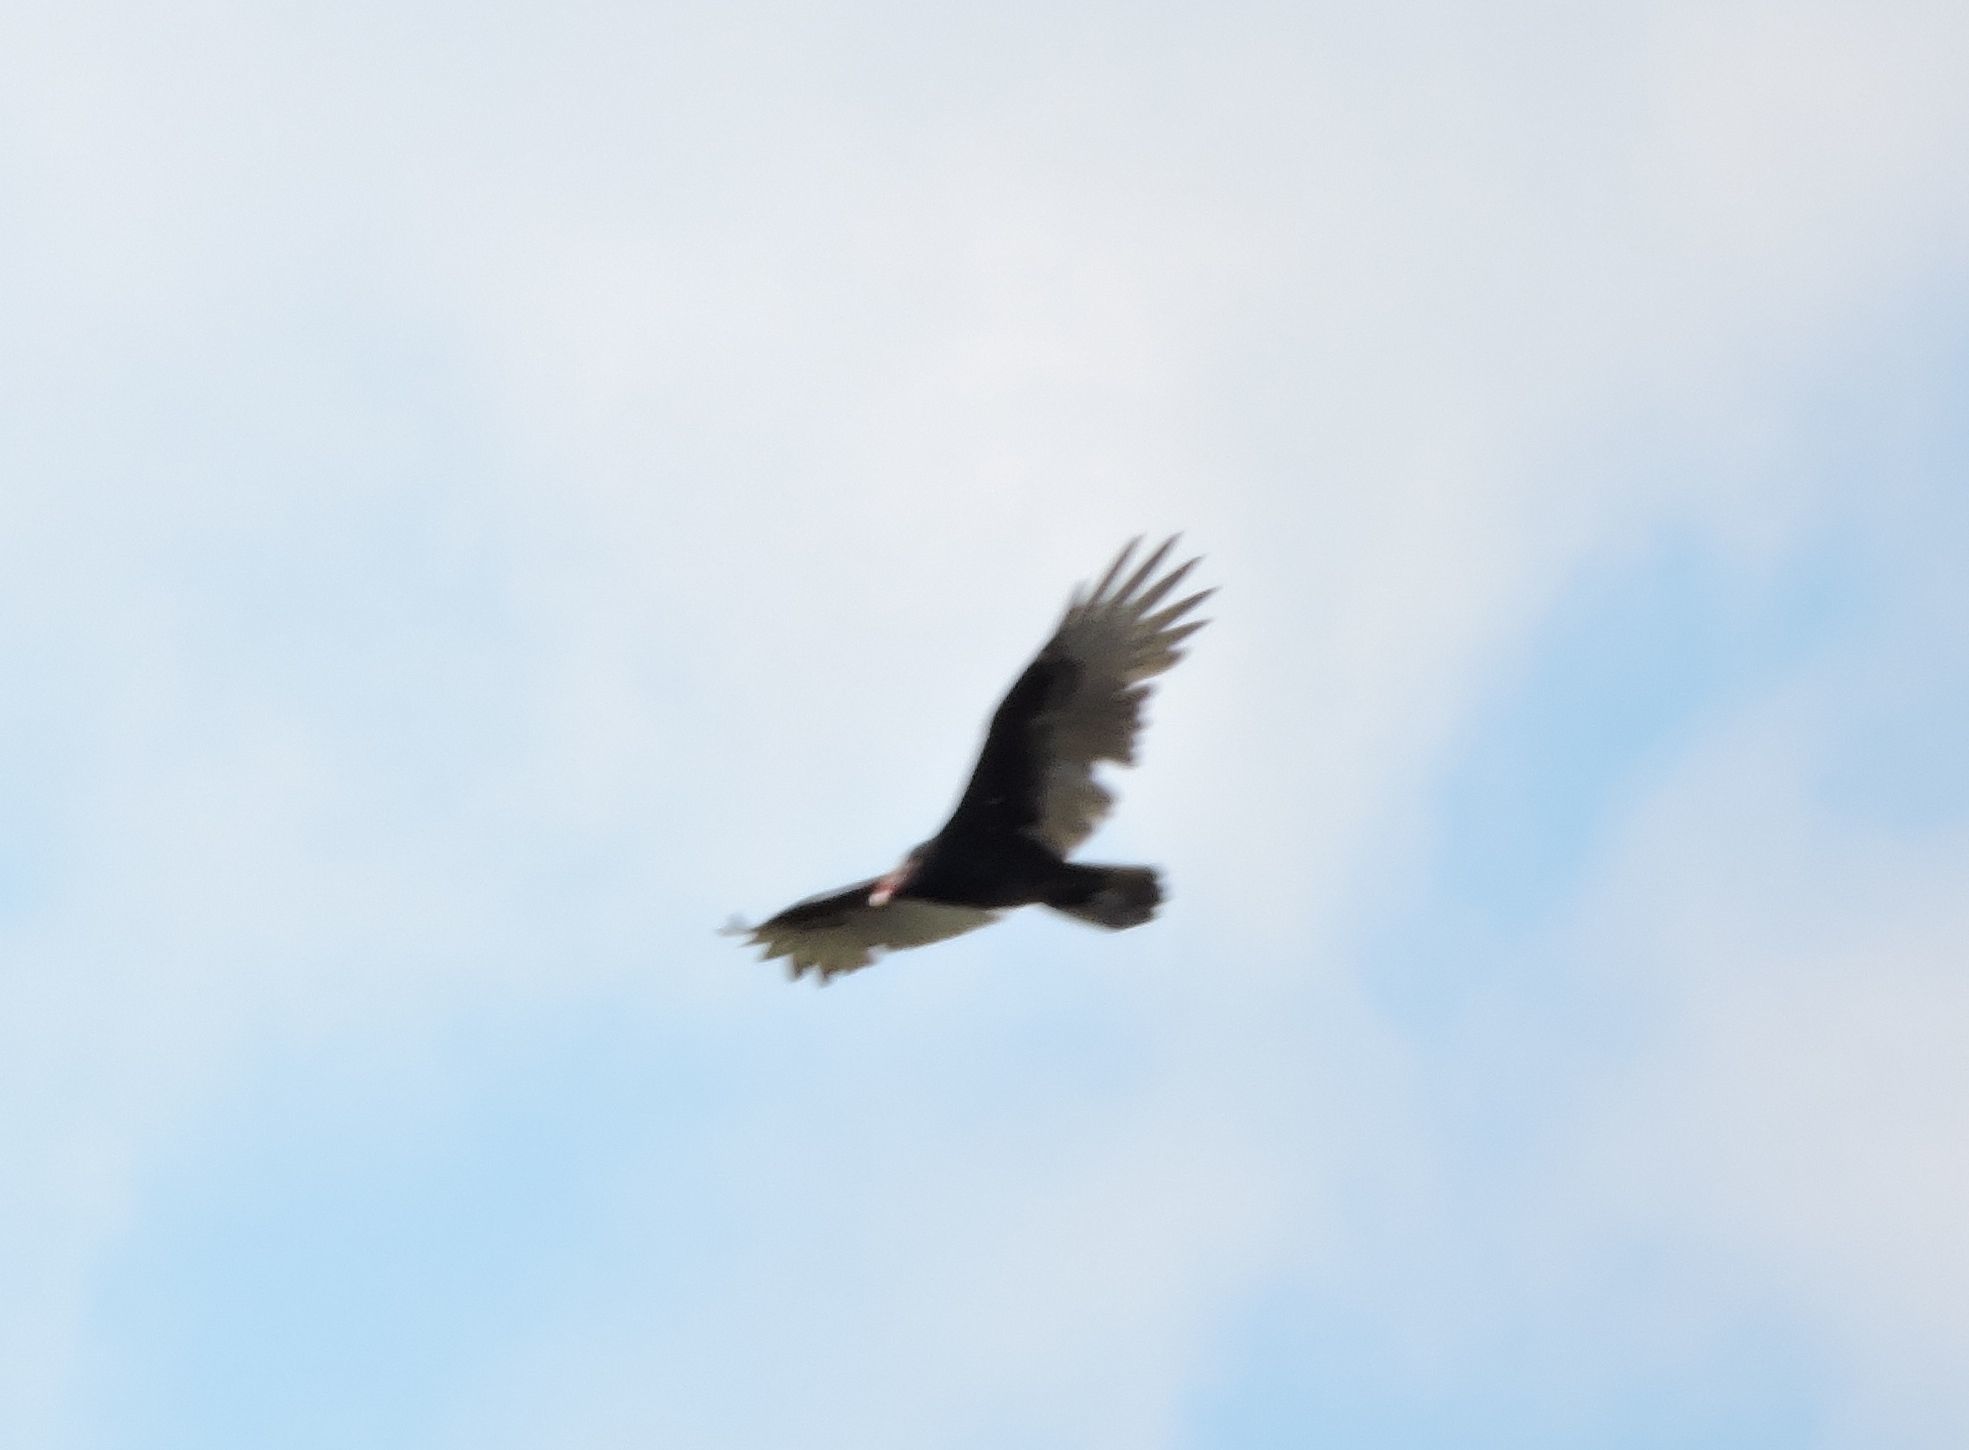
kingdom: Animalia
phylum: Chordata
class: Aves
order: Accipitriformes
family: Cathartidae
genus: Cathartes
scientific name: Cathartes aura
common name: Turkey vulture
